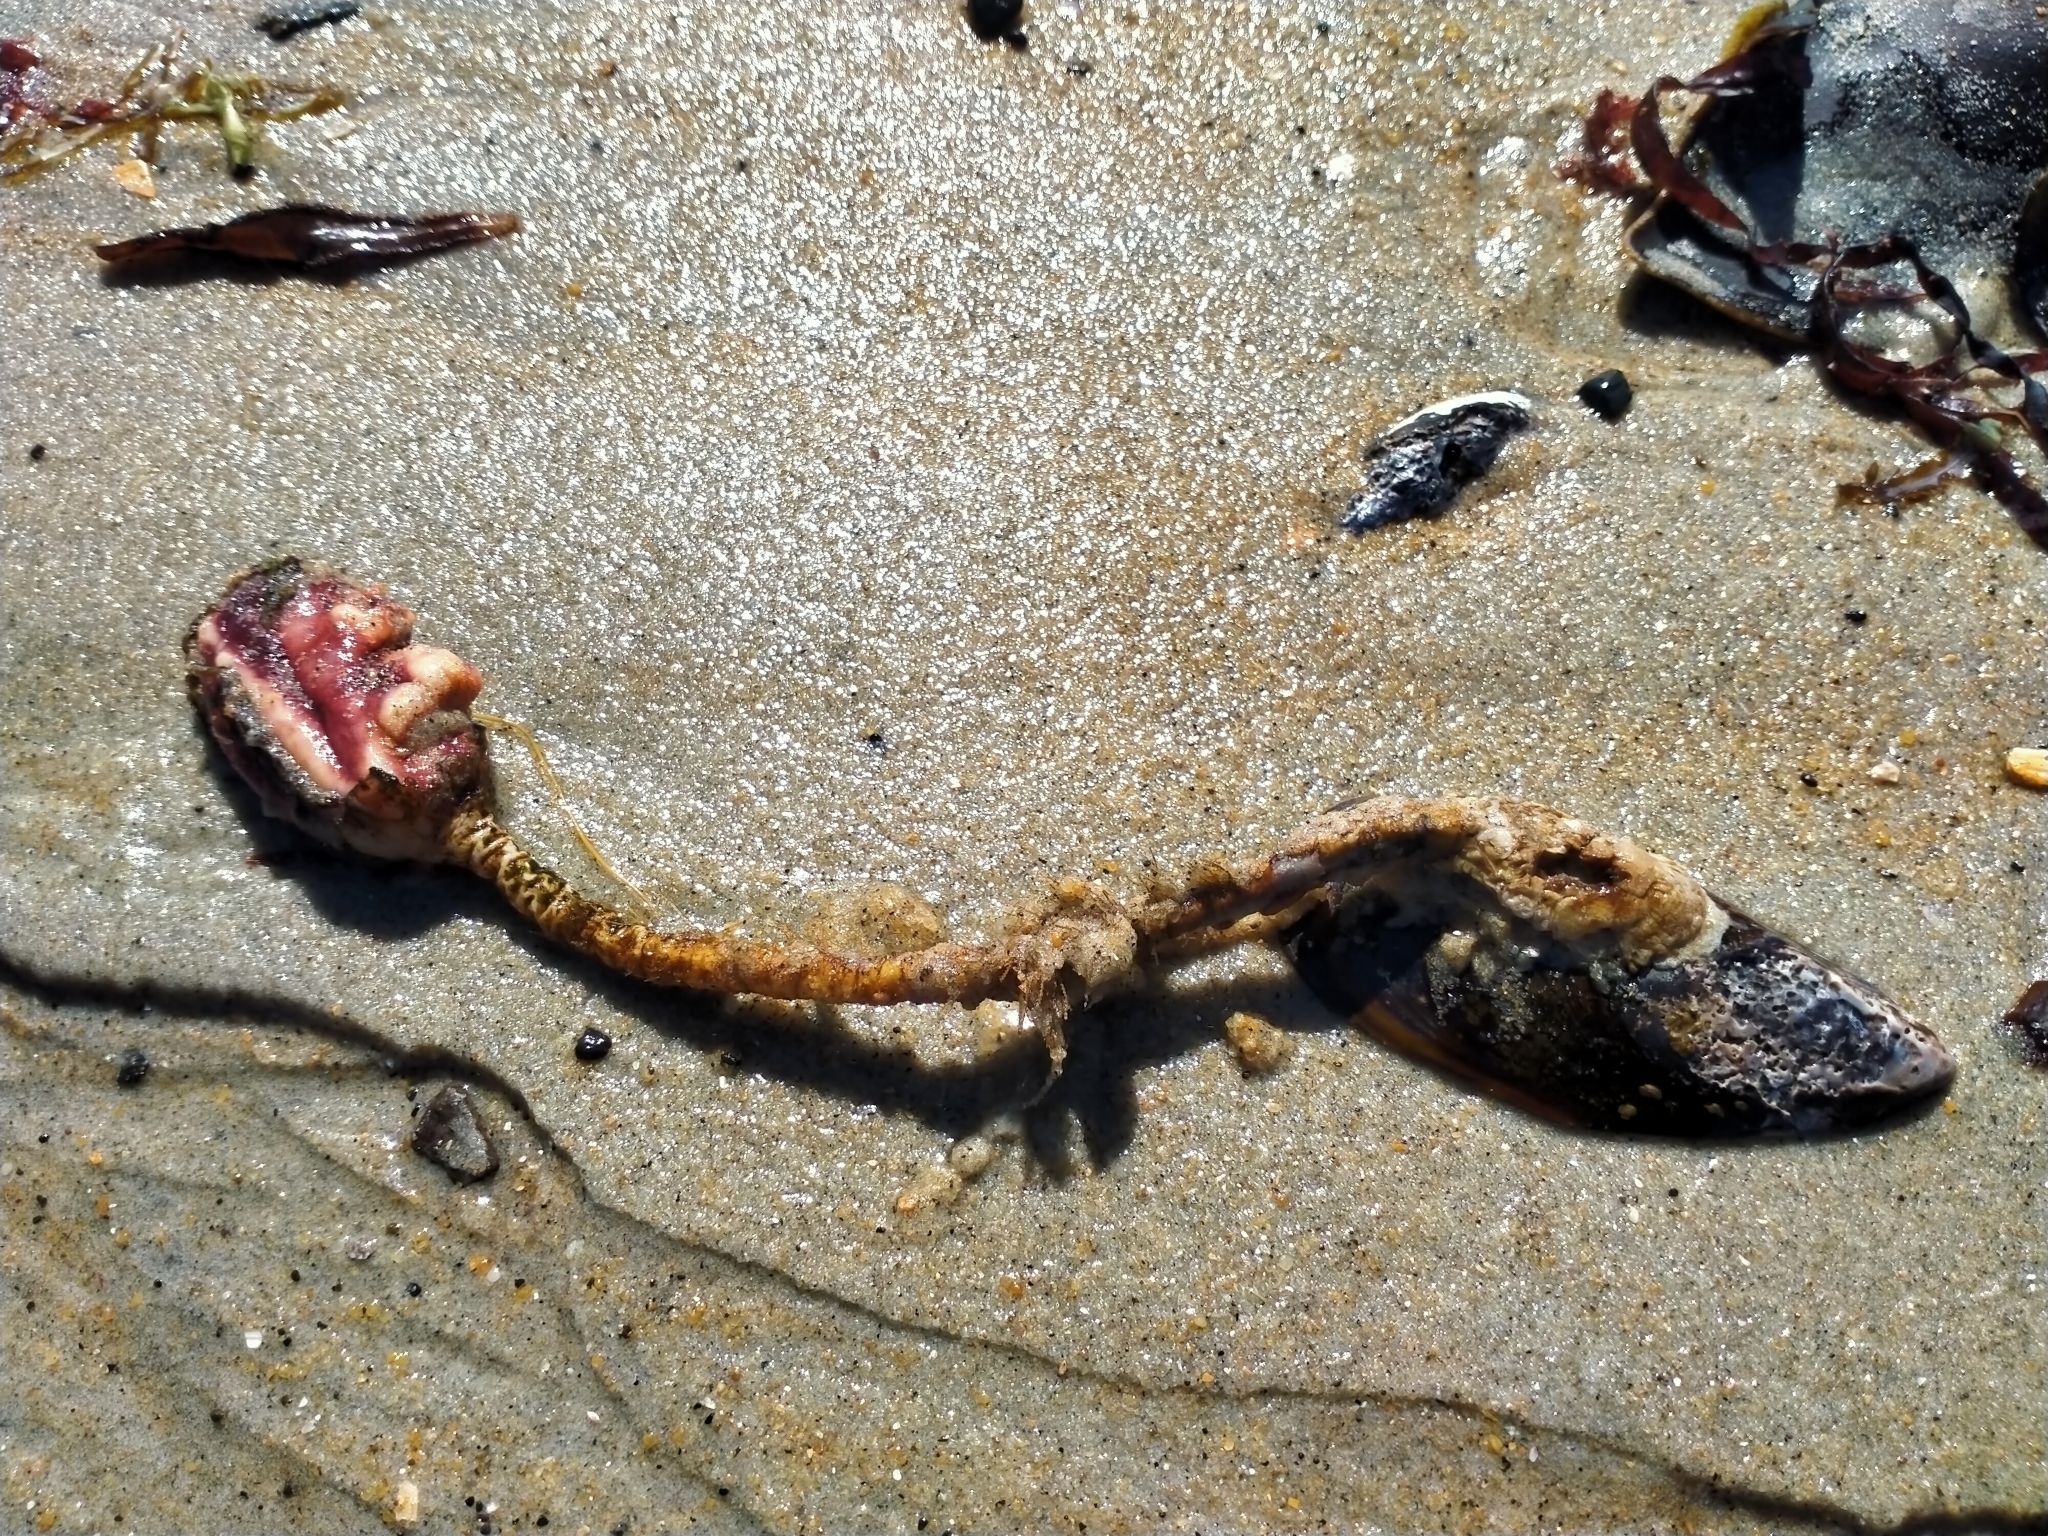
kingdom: Animalia
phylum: Chordata
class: Ascidiacea
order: Stolidobranchia
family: Pyuridae
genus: Pyura
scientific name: Pyura pachydermatina
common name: Sea tulip
